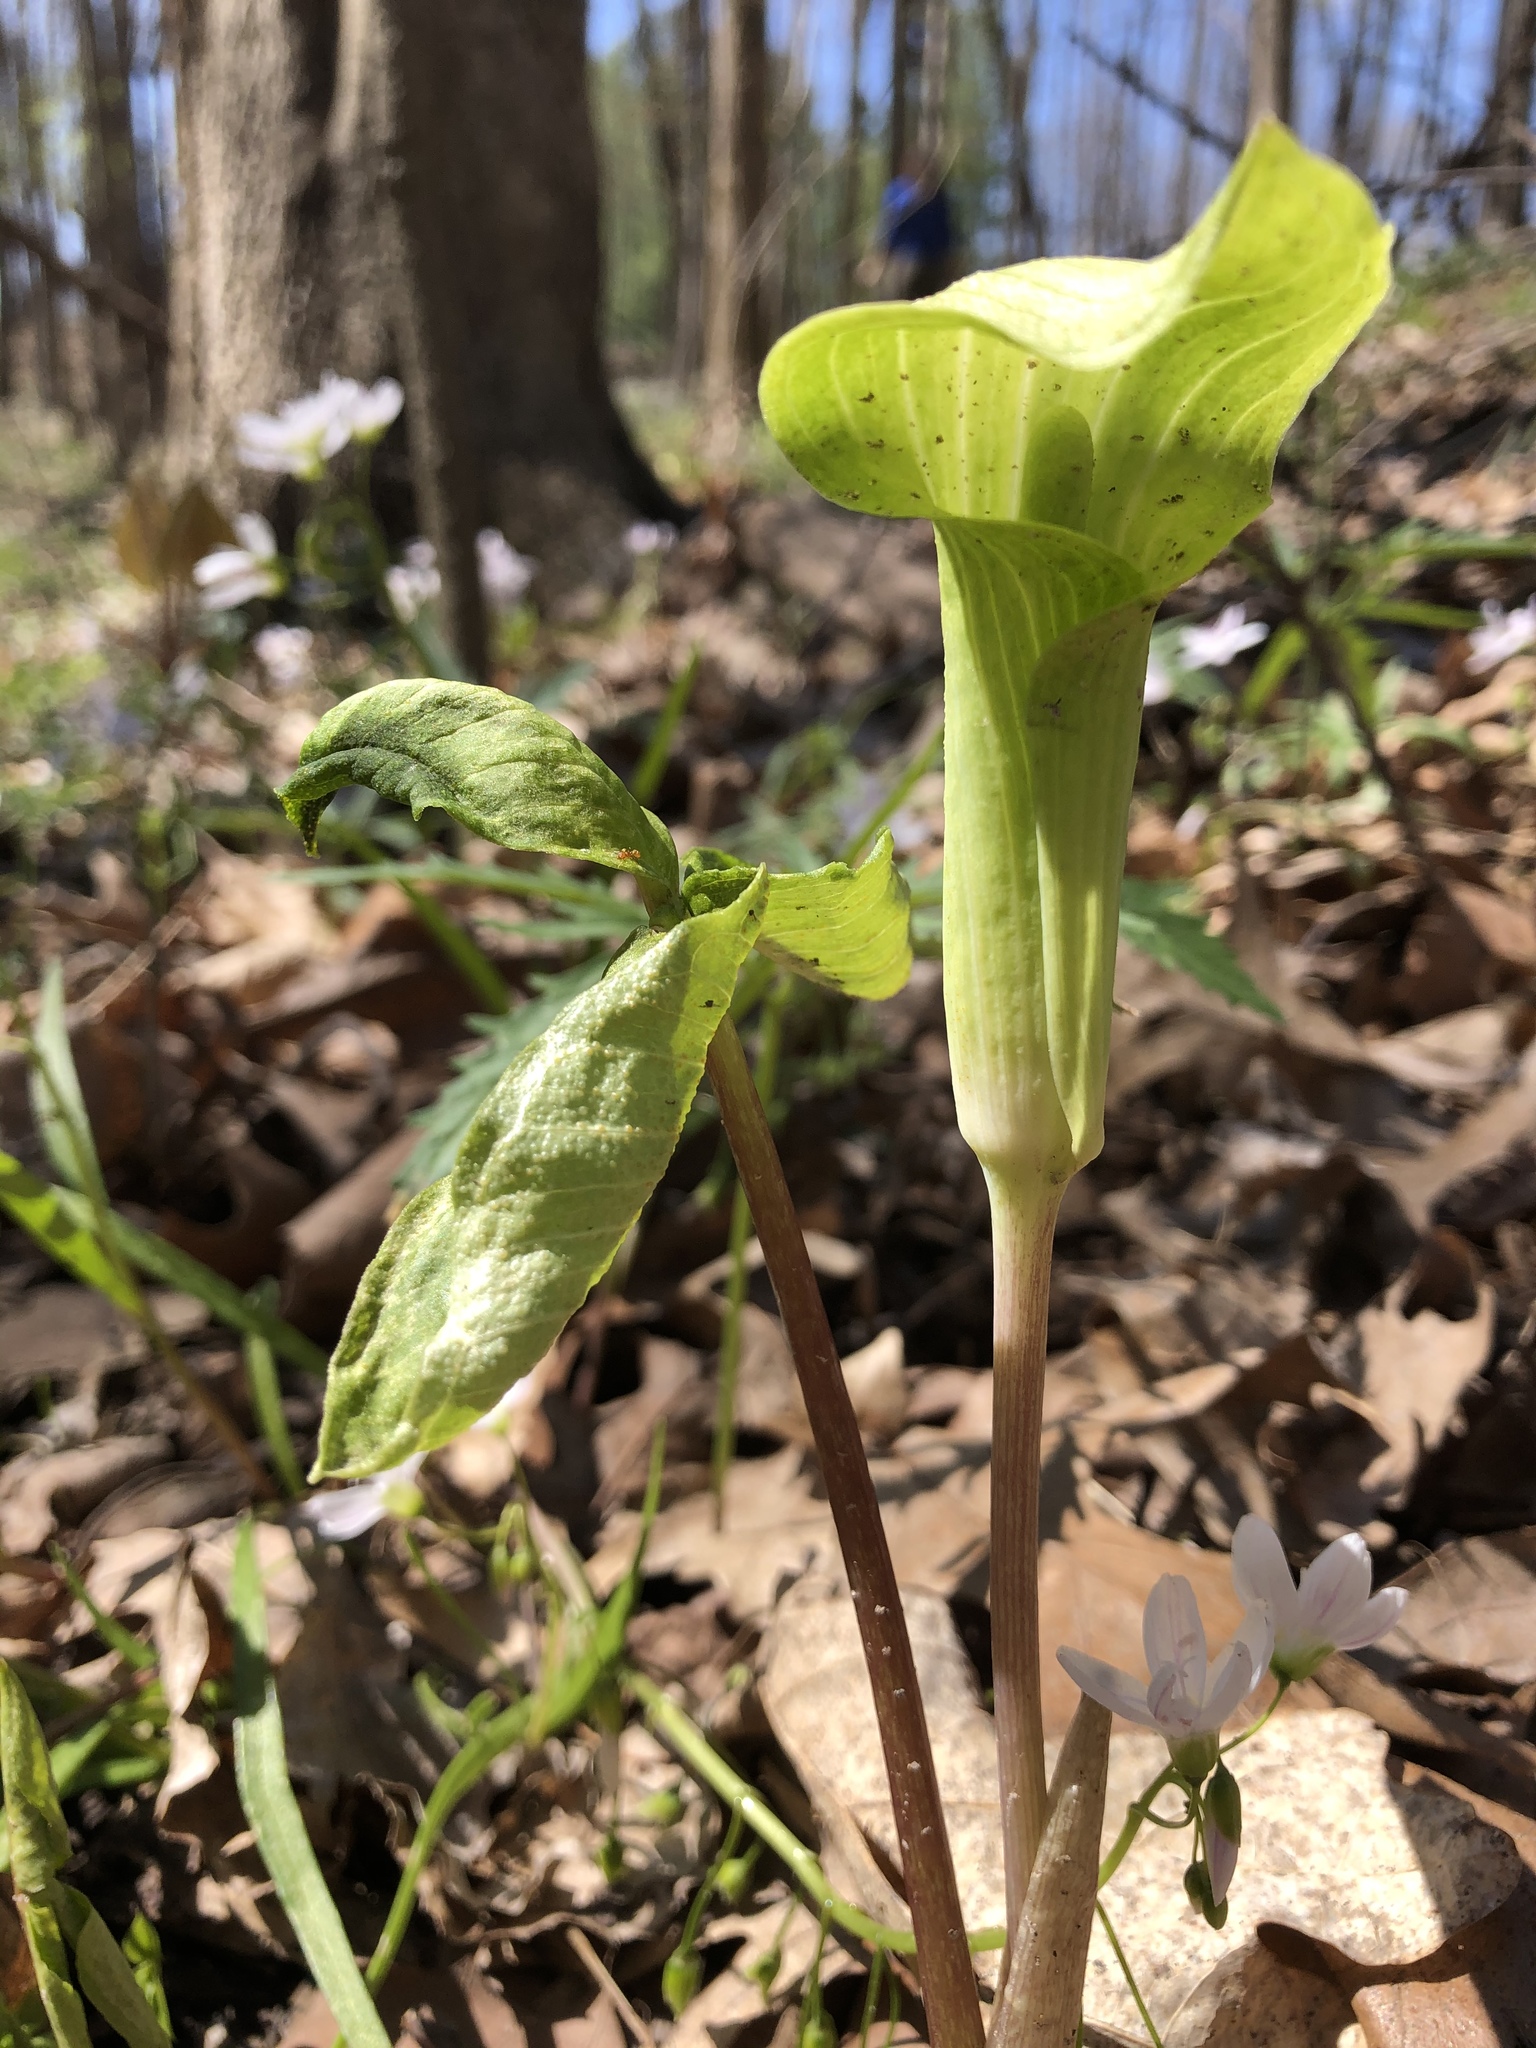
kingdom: Plantae
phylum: Tracheophyta
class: Liliopsida
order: Alismatales
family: Araceae
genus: Arisaema
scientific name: Arisaema triphyllum
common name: Jack-in-the-pulpit
